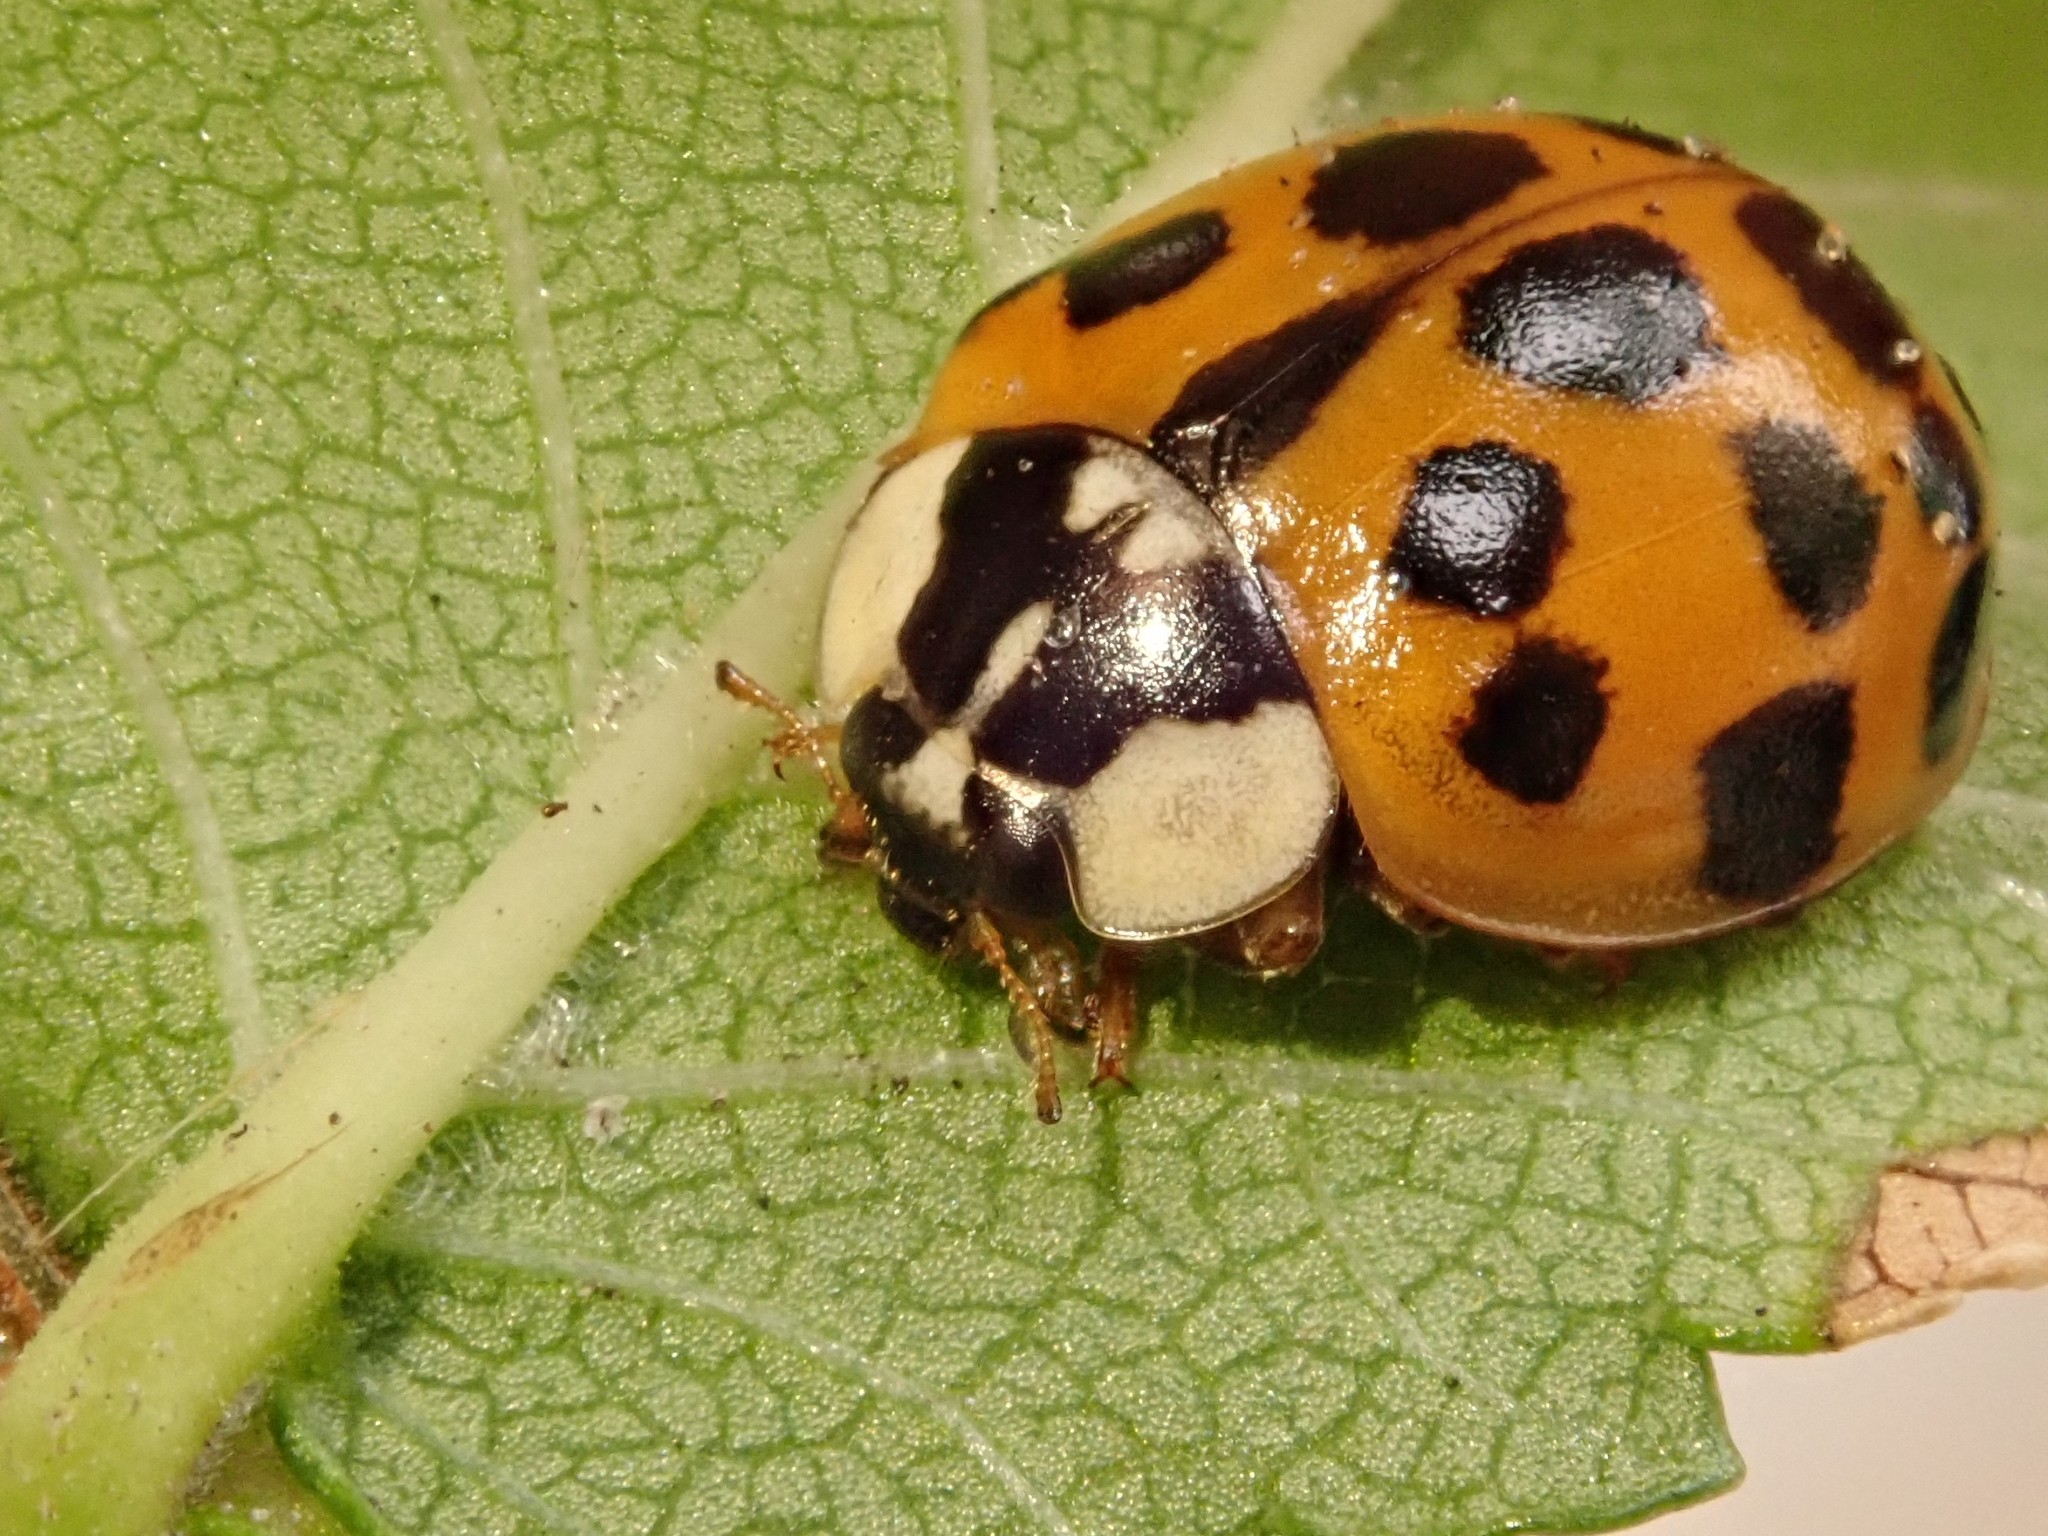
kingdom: Animalia
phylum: Arthropoda
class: Insecta
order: Coleoptera
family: Coccinellidae
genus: Harmonia
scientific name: Harmonia axyridis
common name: Harlequin ladybird
